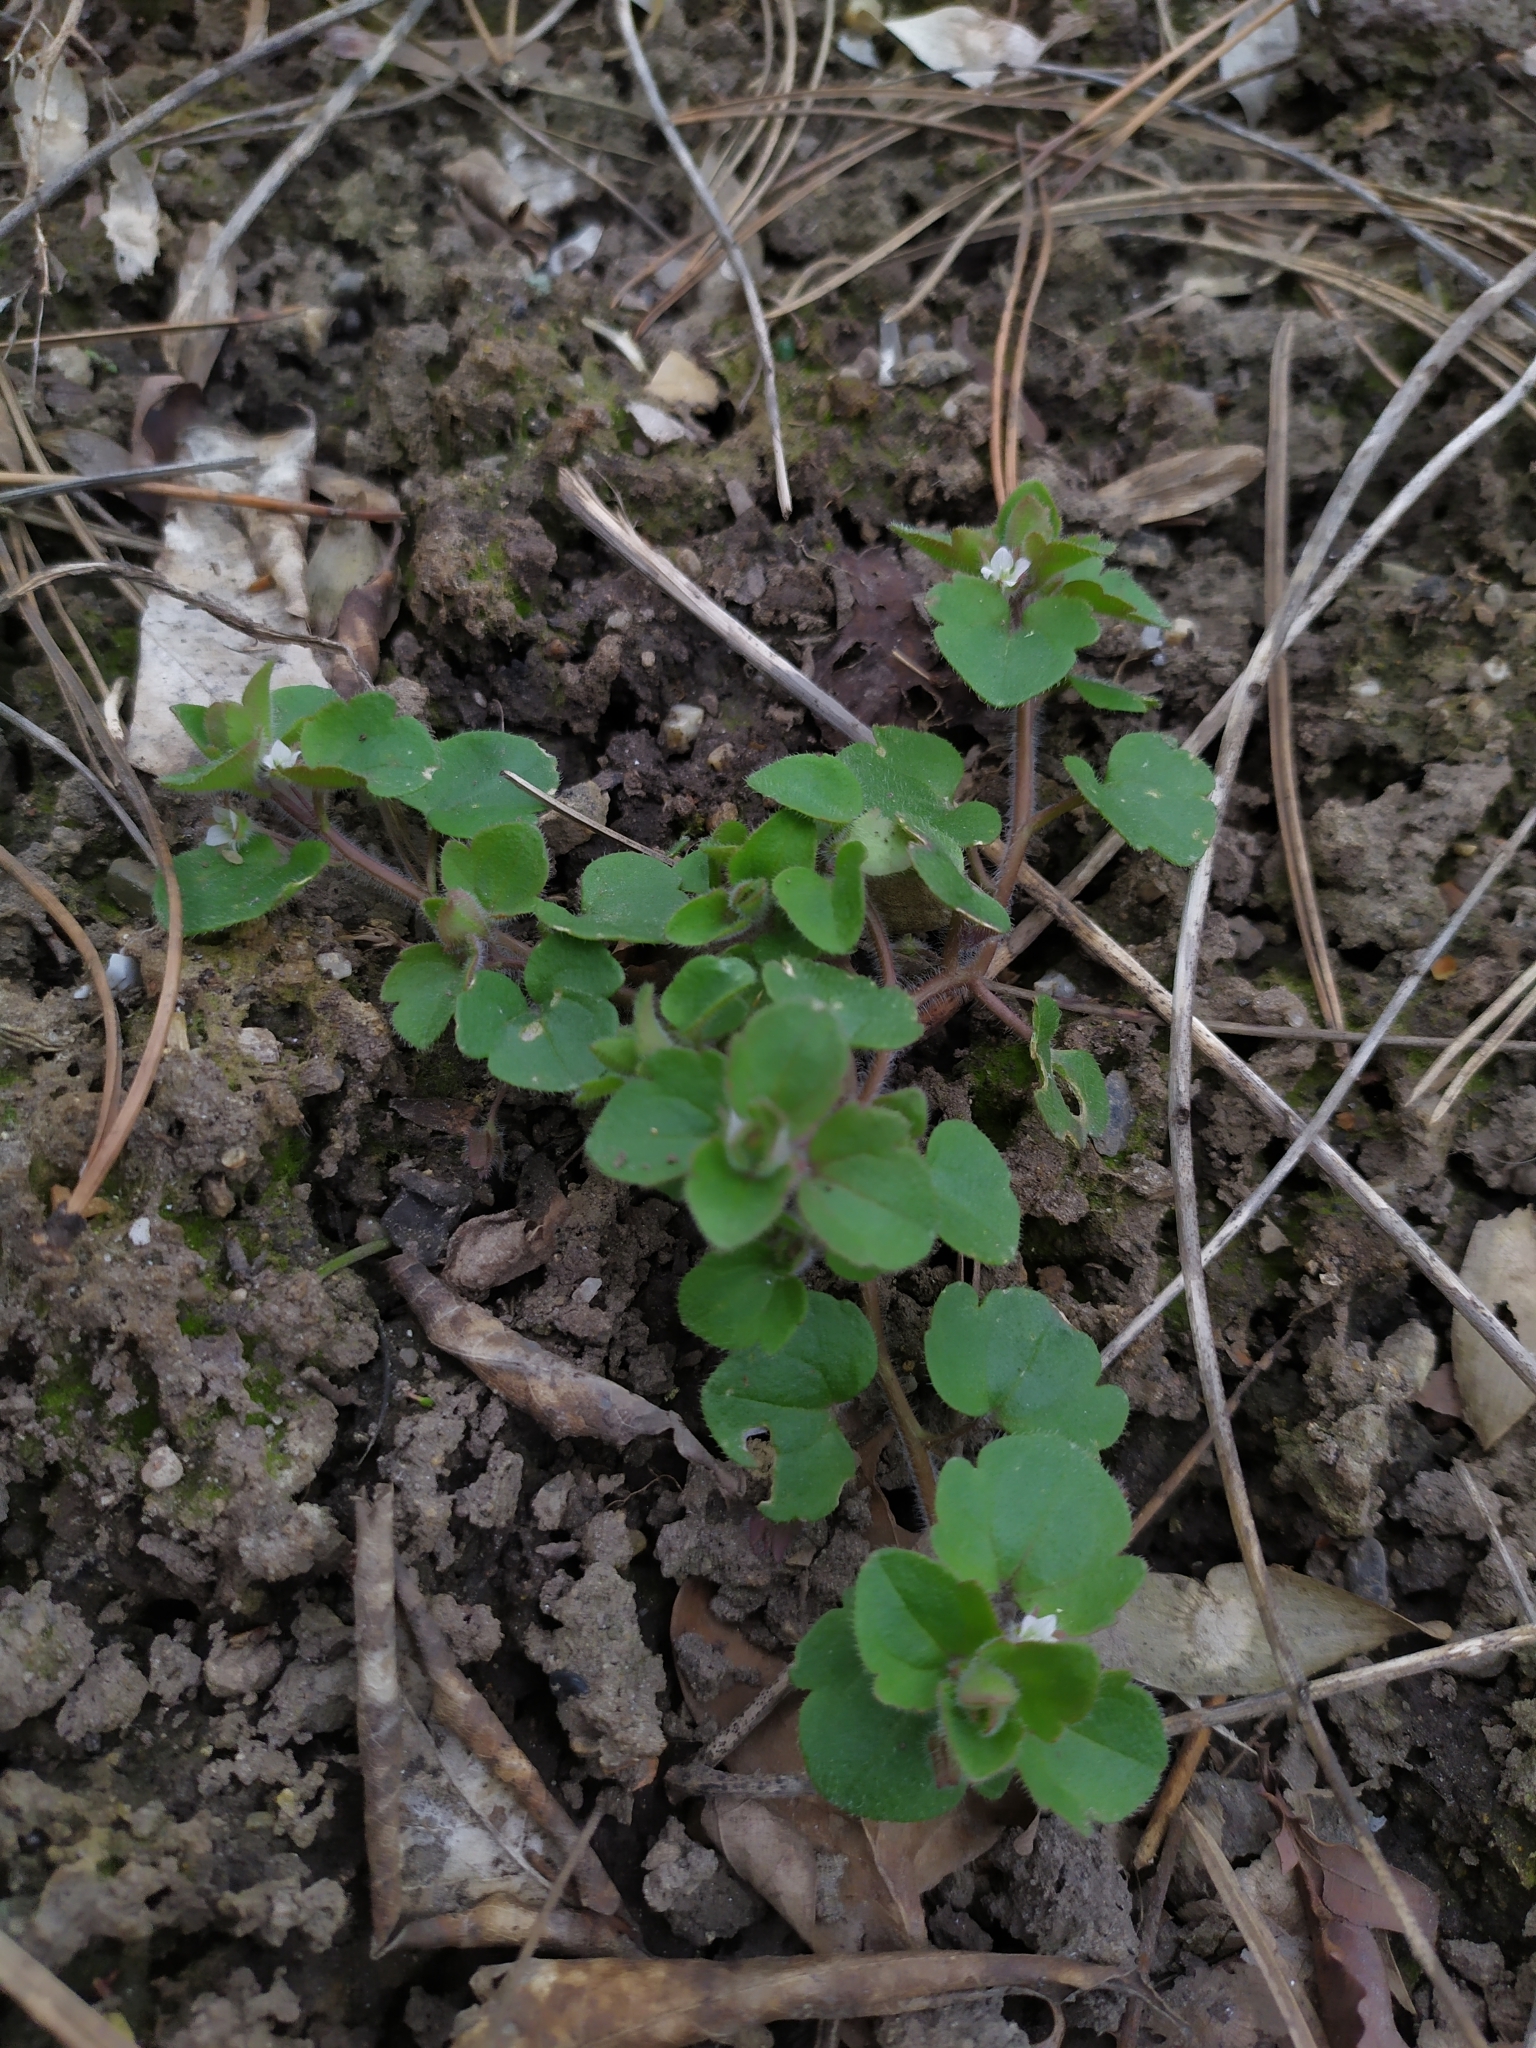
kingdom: Plantae
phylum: Tracheophyta
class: Magnoliopsida
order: Lamiales
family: Plantaginaceae
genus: Veronica
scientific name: Veronica sublobata
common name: False ivy-leaved speedwell
